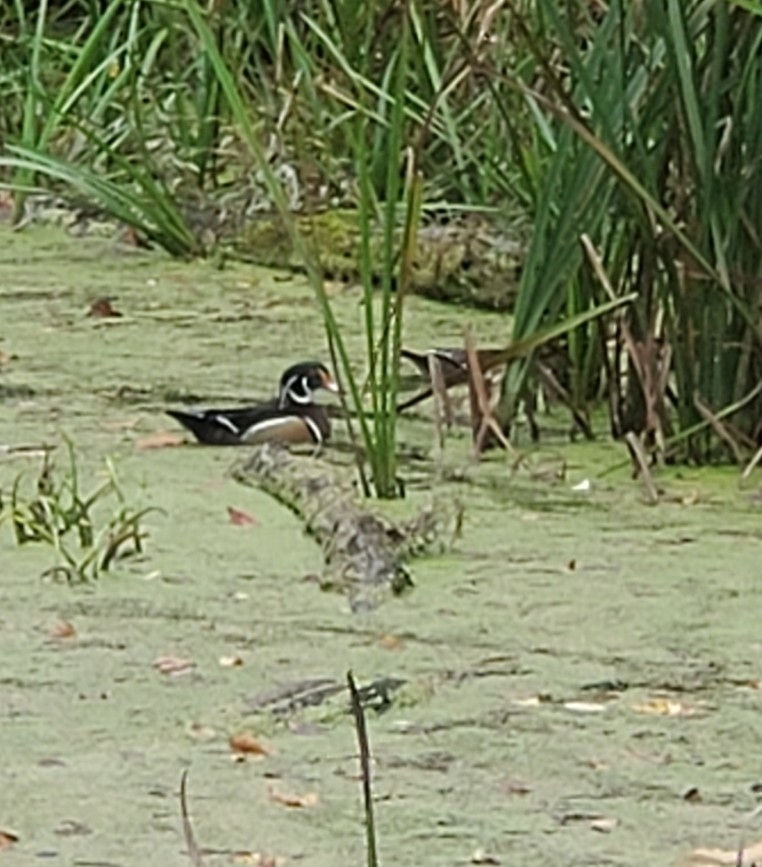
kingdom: Animalia
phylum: Chordata
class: Aves
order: Anseriformes
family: Anatidae
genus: Aix
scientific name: Aix sponsa
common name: Wood duck
